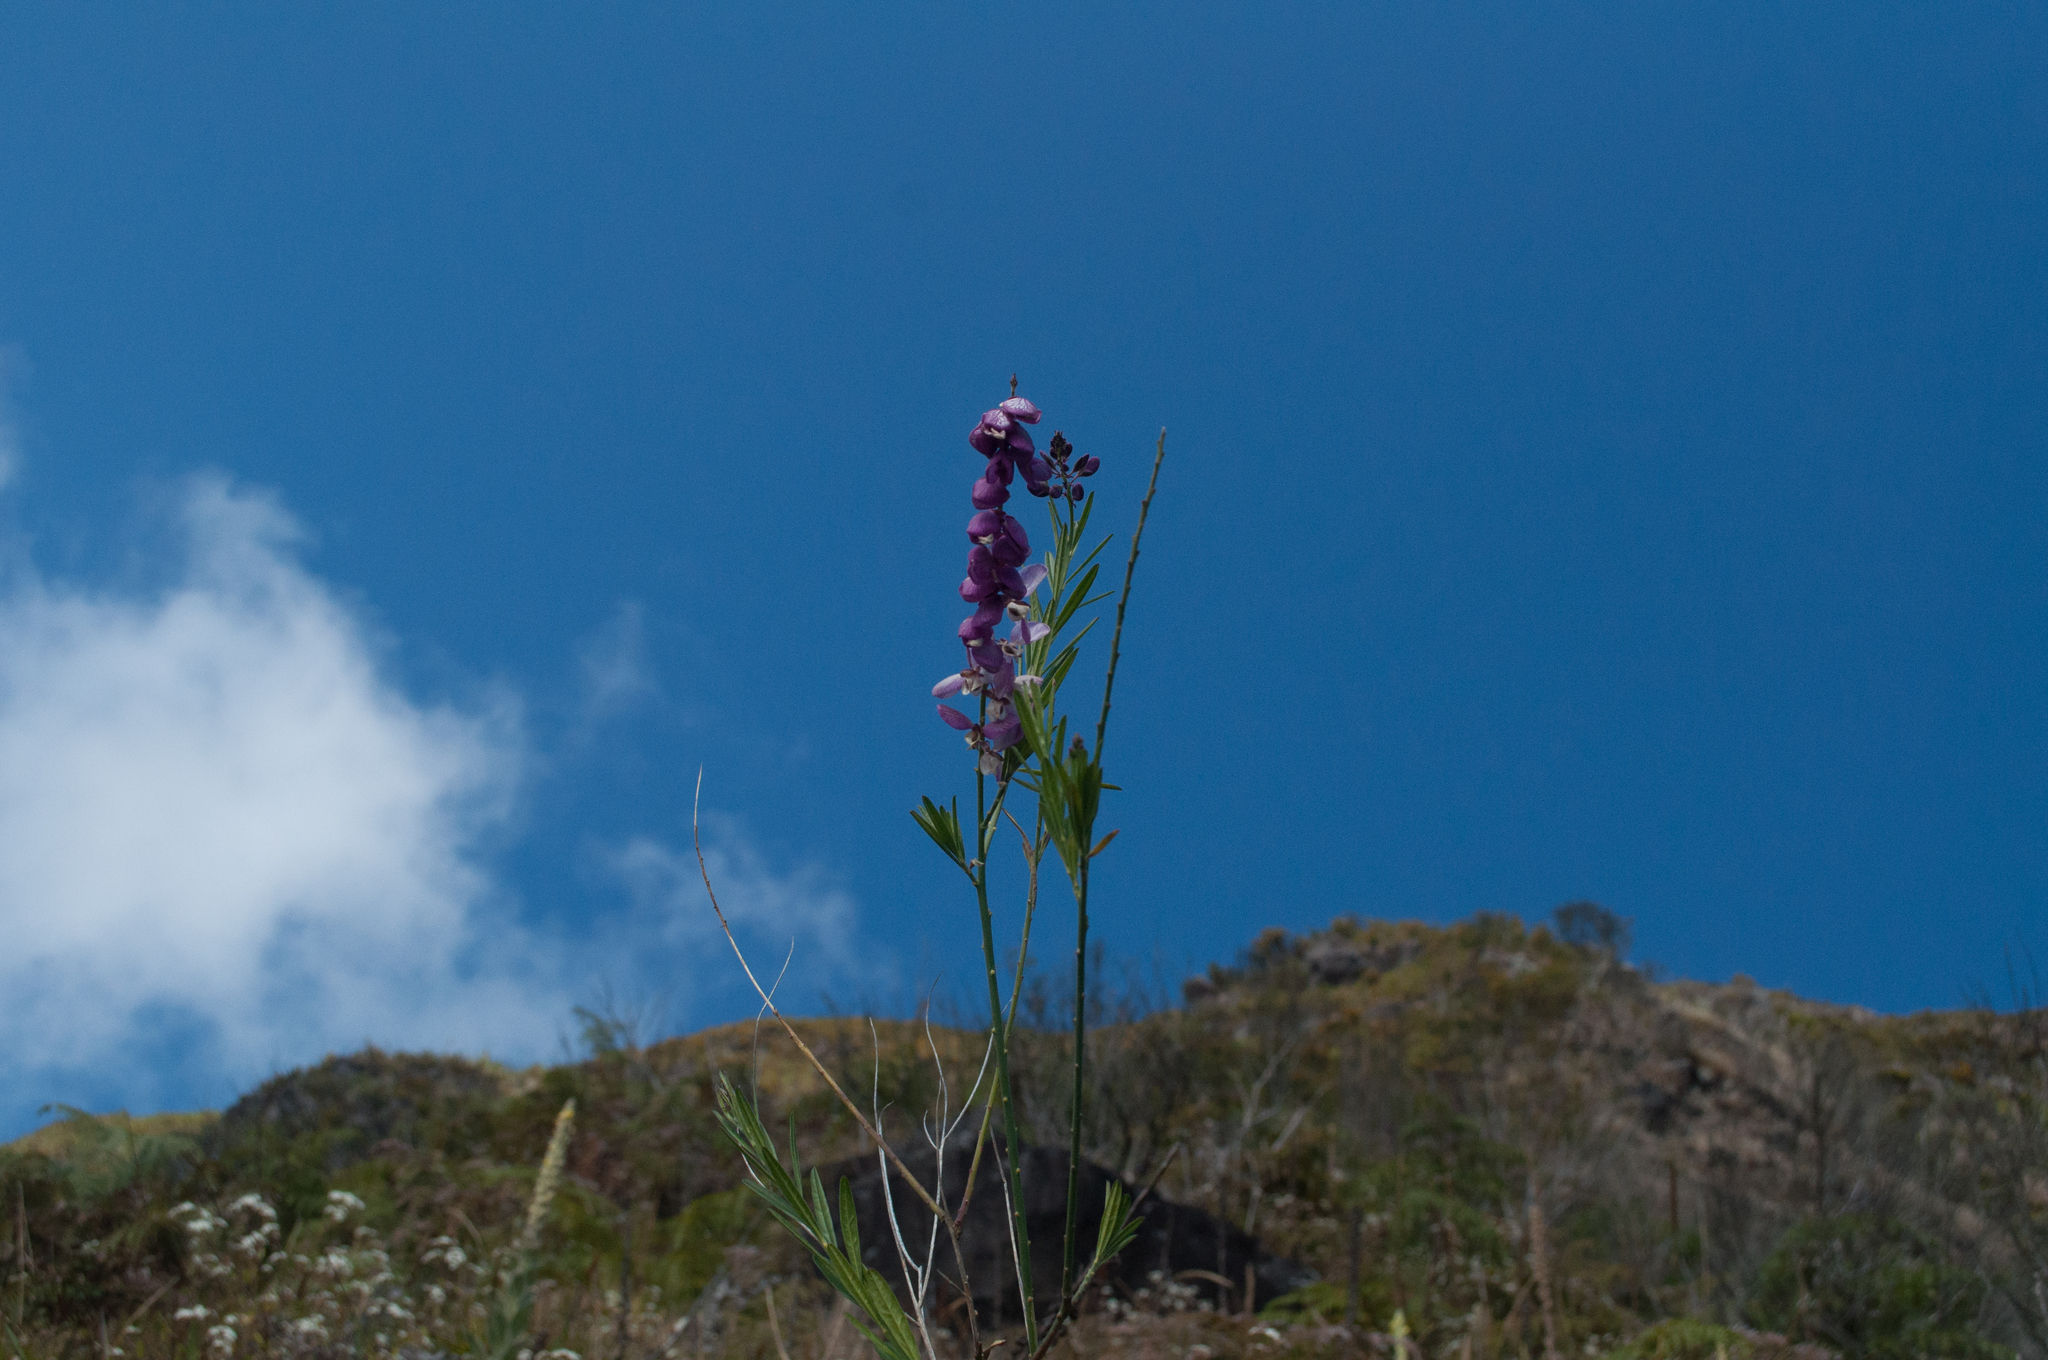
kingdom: Plantae
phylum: Tracheophyta
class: Magnoliopsida
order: Fabales
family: Polygalaceae
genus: Polygala
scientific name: Polygala virgata
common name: Milkwort
